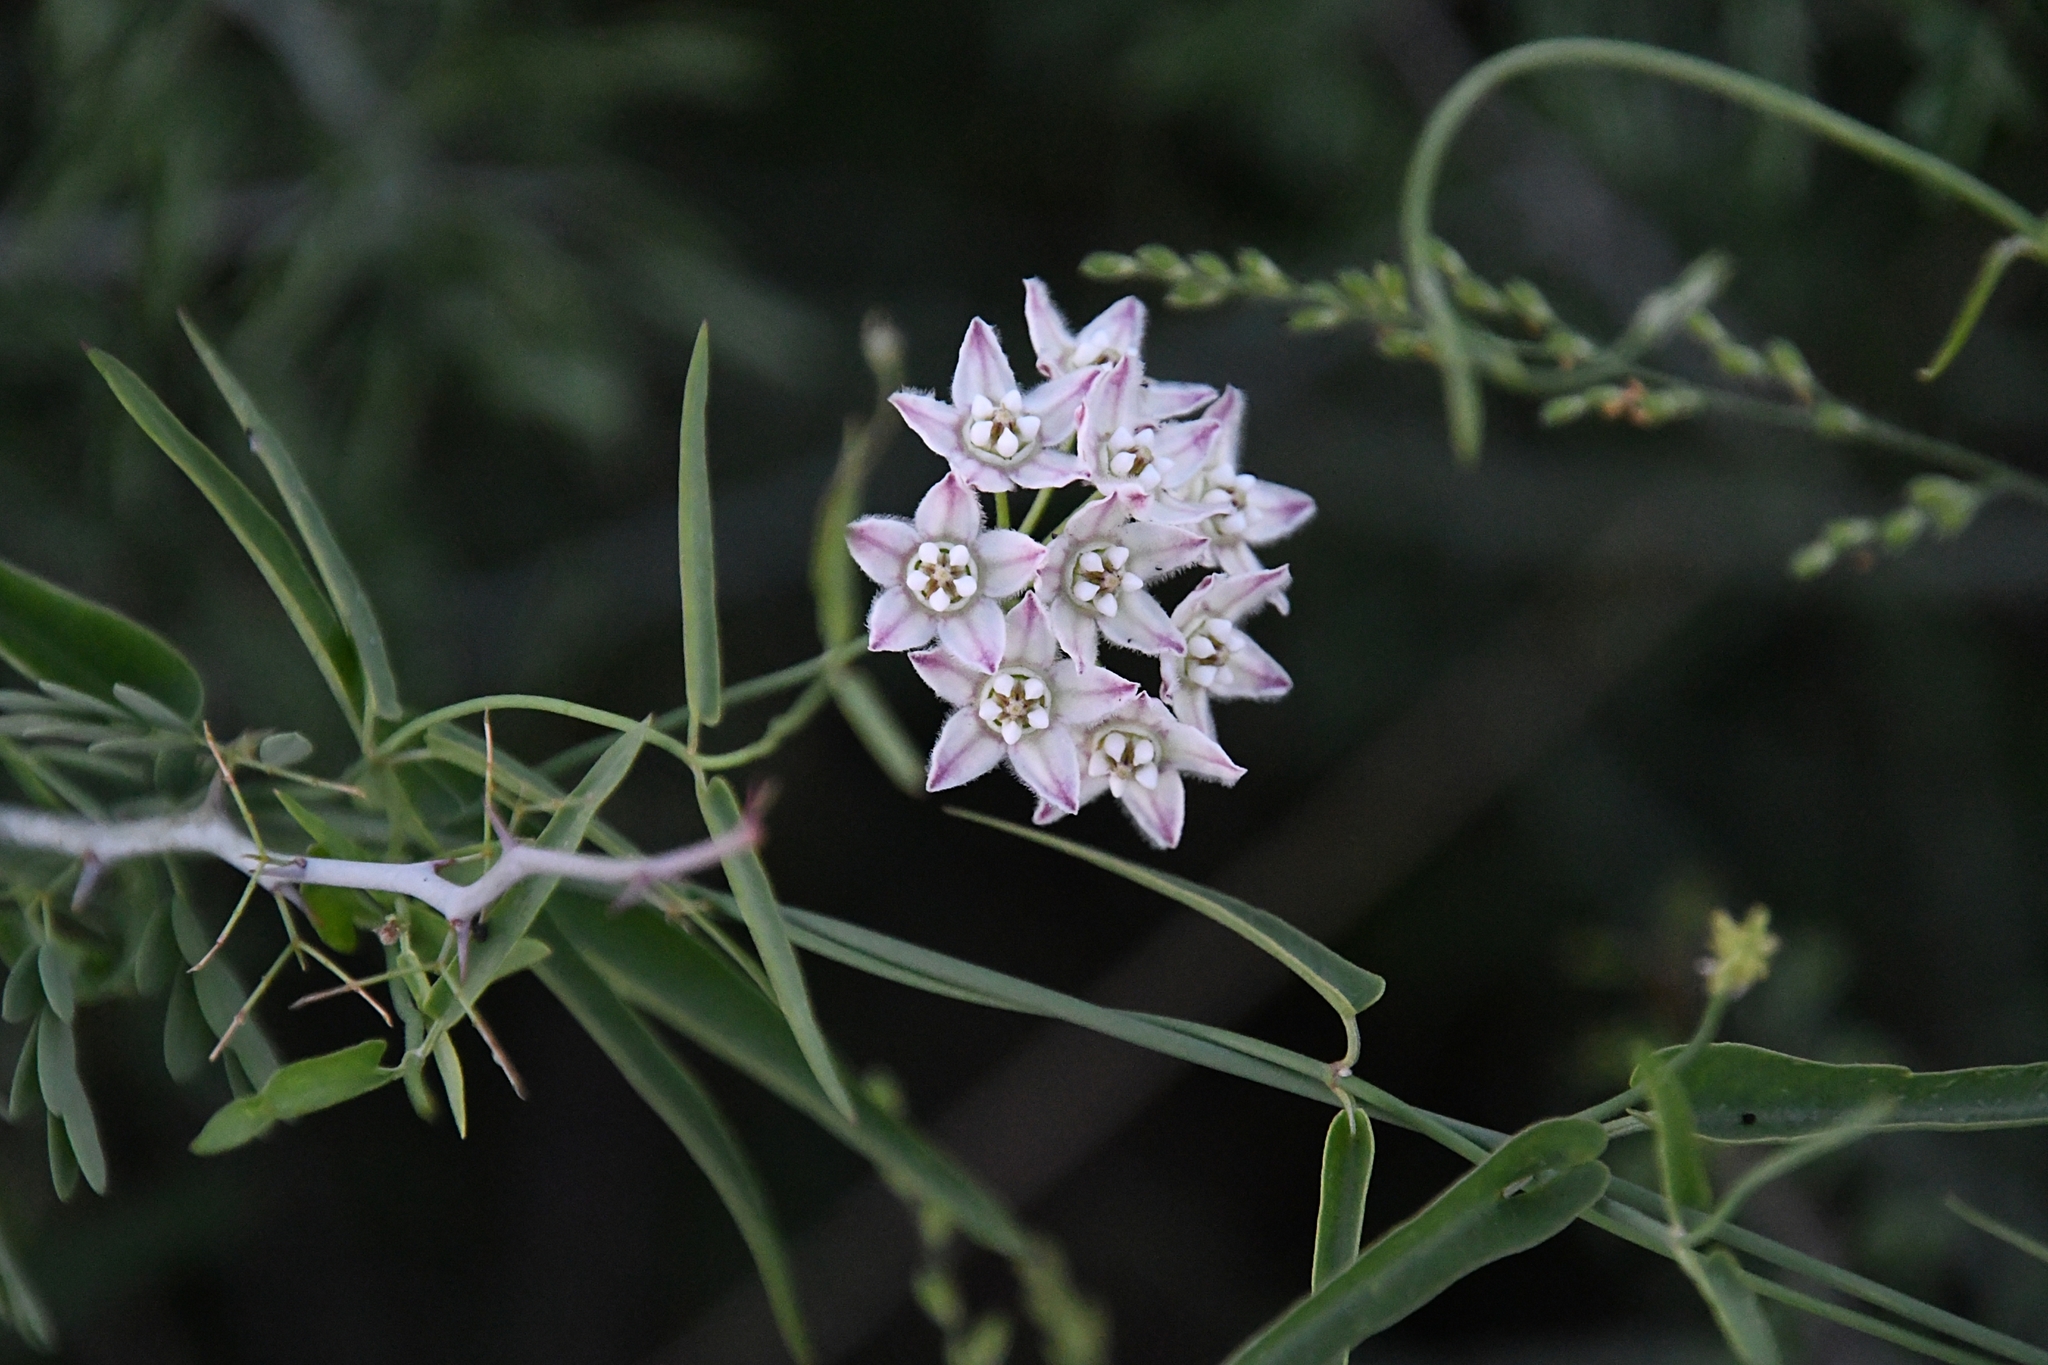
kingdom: Plantae
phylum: Tracheophyta
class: Magnoliopsida
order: Gentianales
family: Apocynaceae
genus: Funastrum
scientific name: Funastrum heterophyllum
